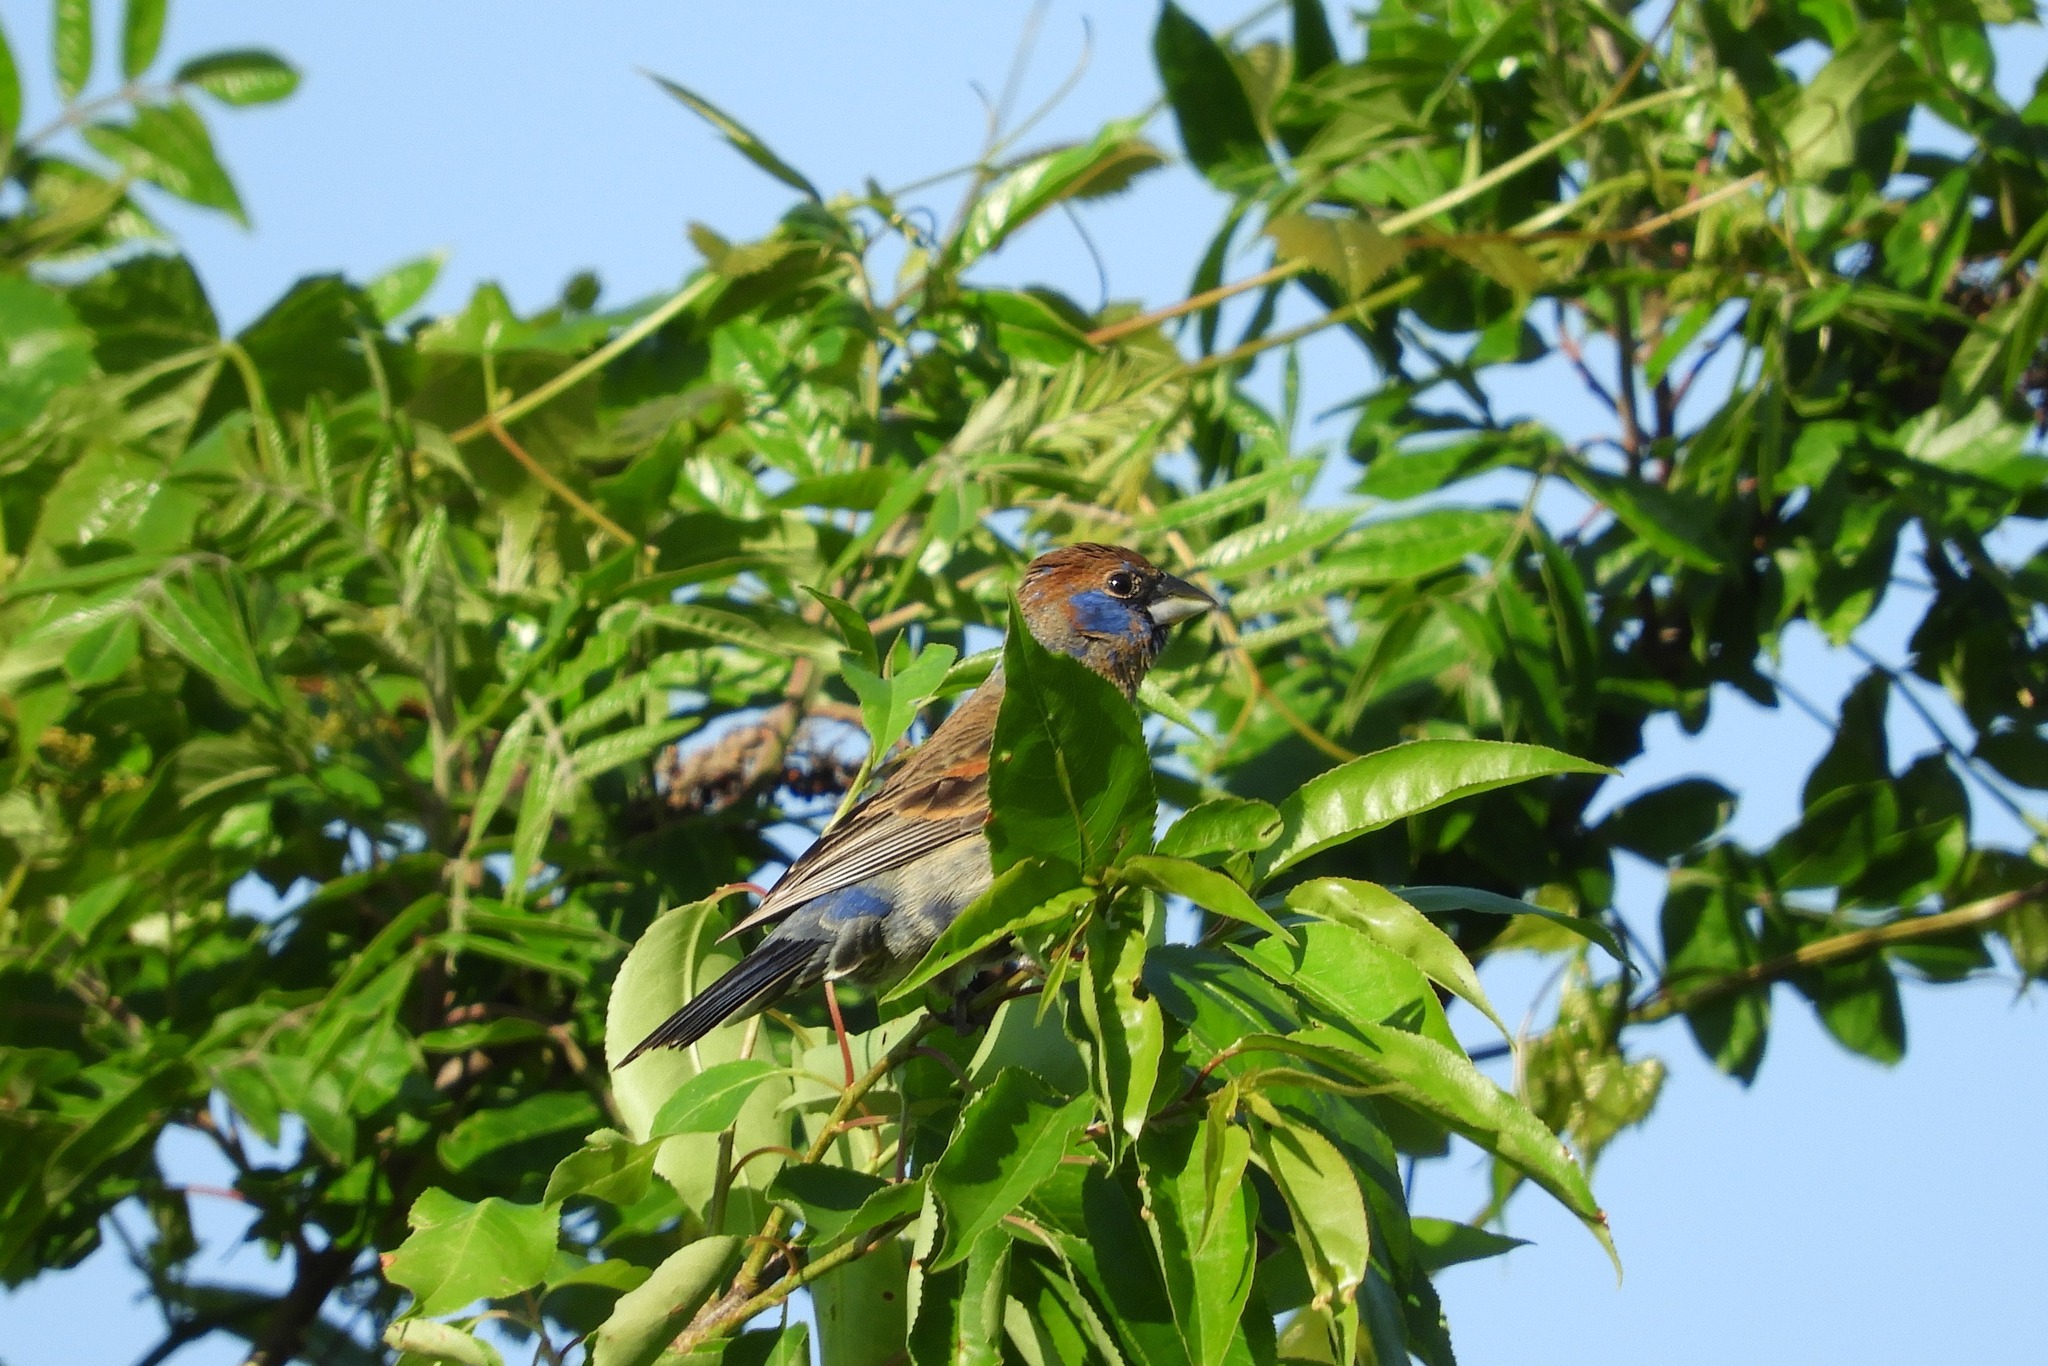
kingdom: Animalia
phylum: Chordata
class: Aves
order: Passeriformes
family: Cardinalidae
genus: Passerina
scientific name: Passerina caerulea
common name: Blue grosbeak
